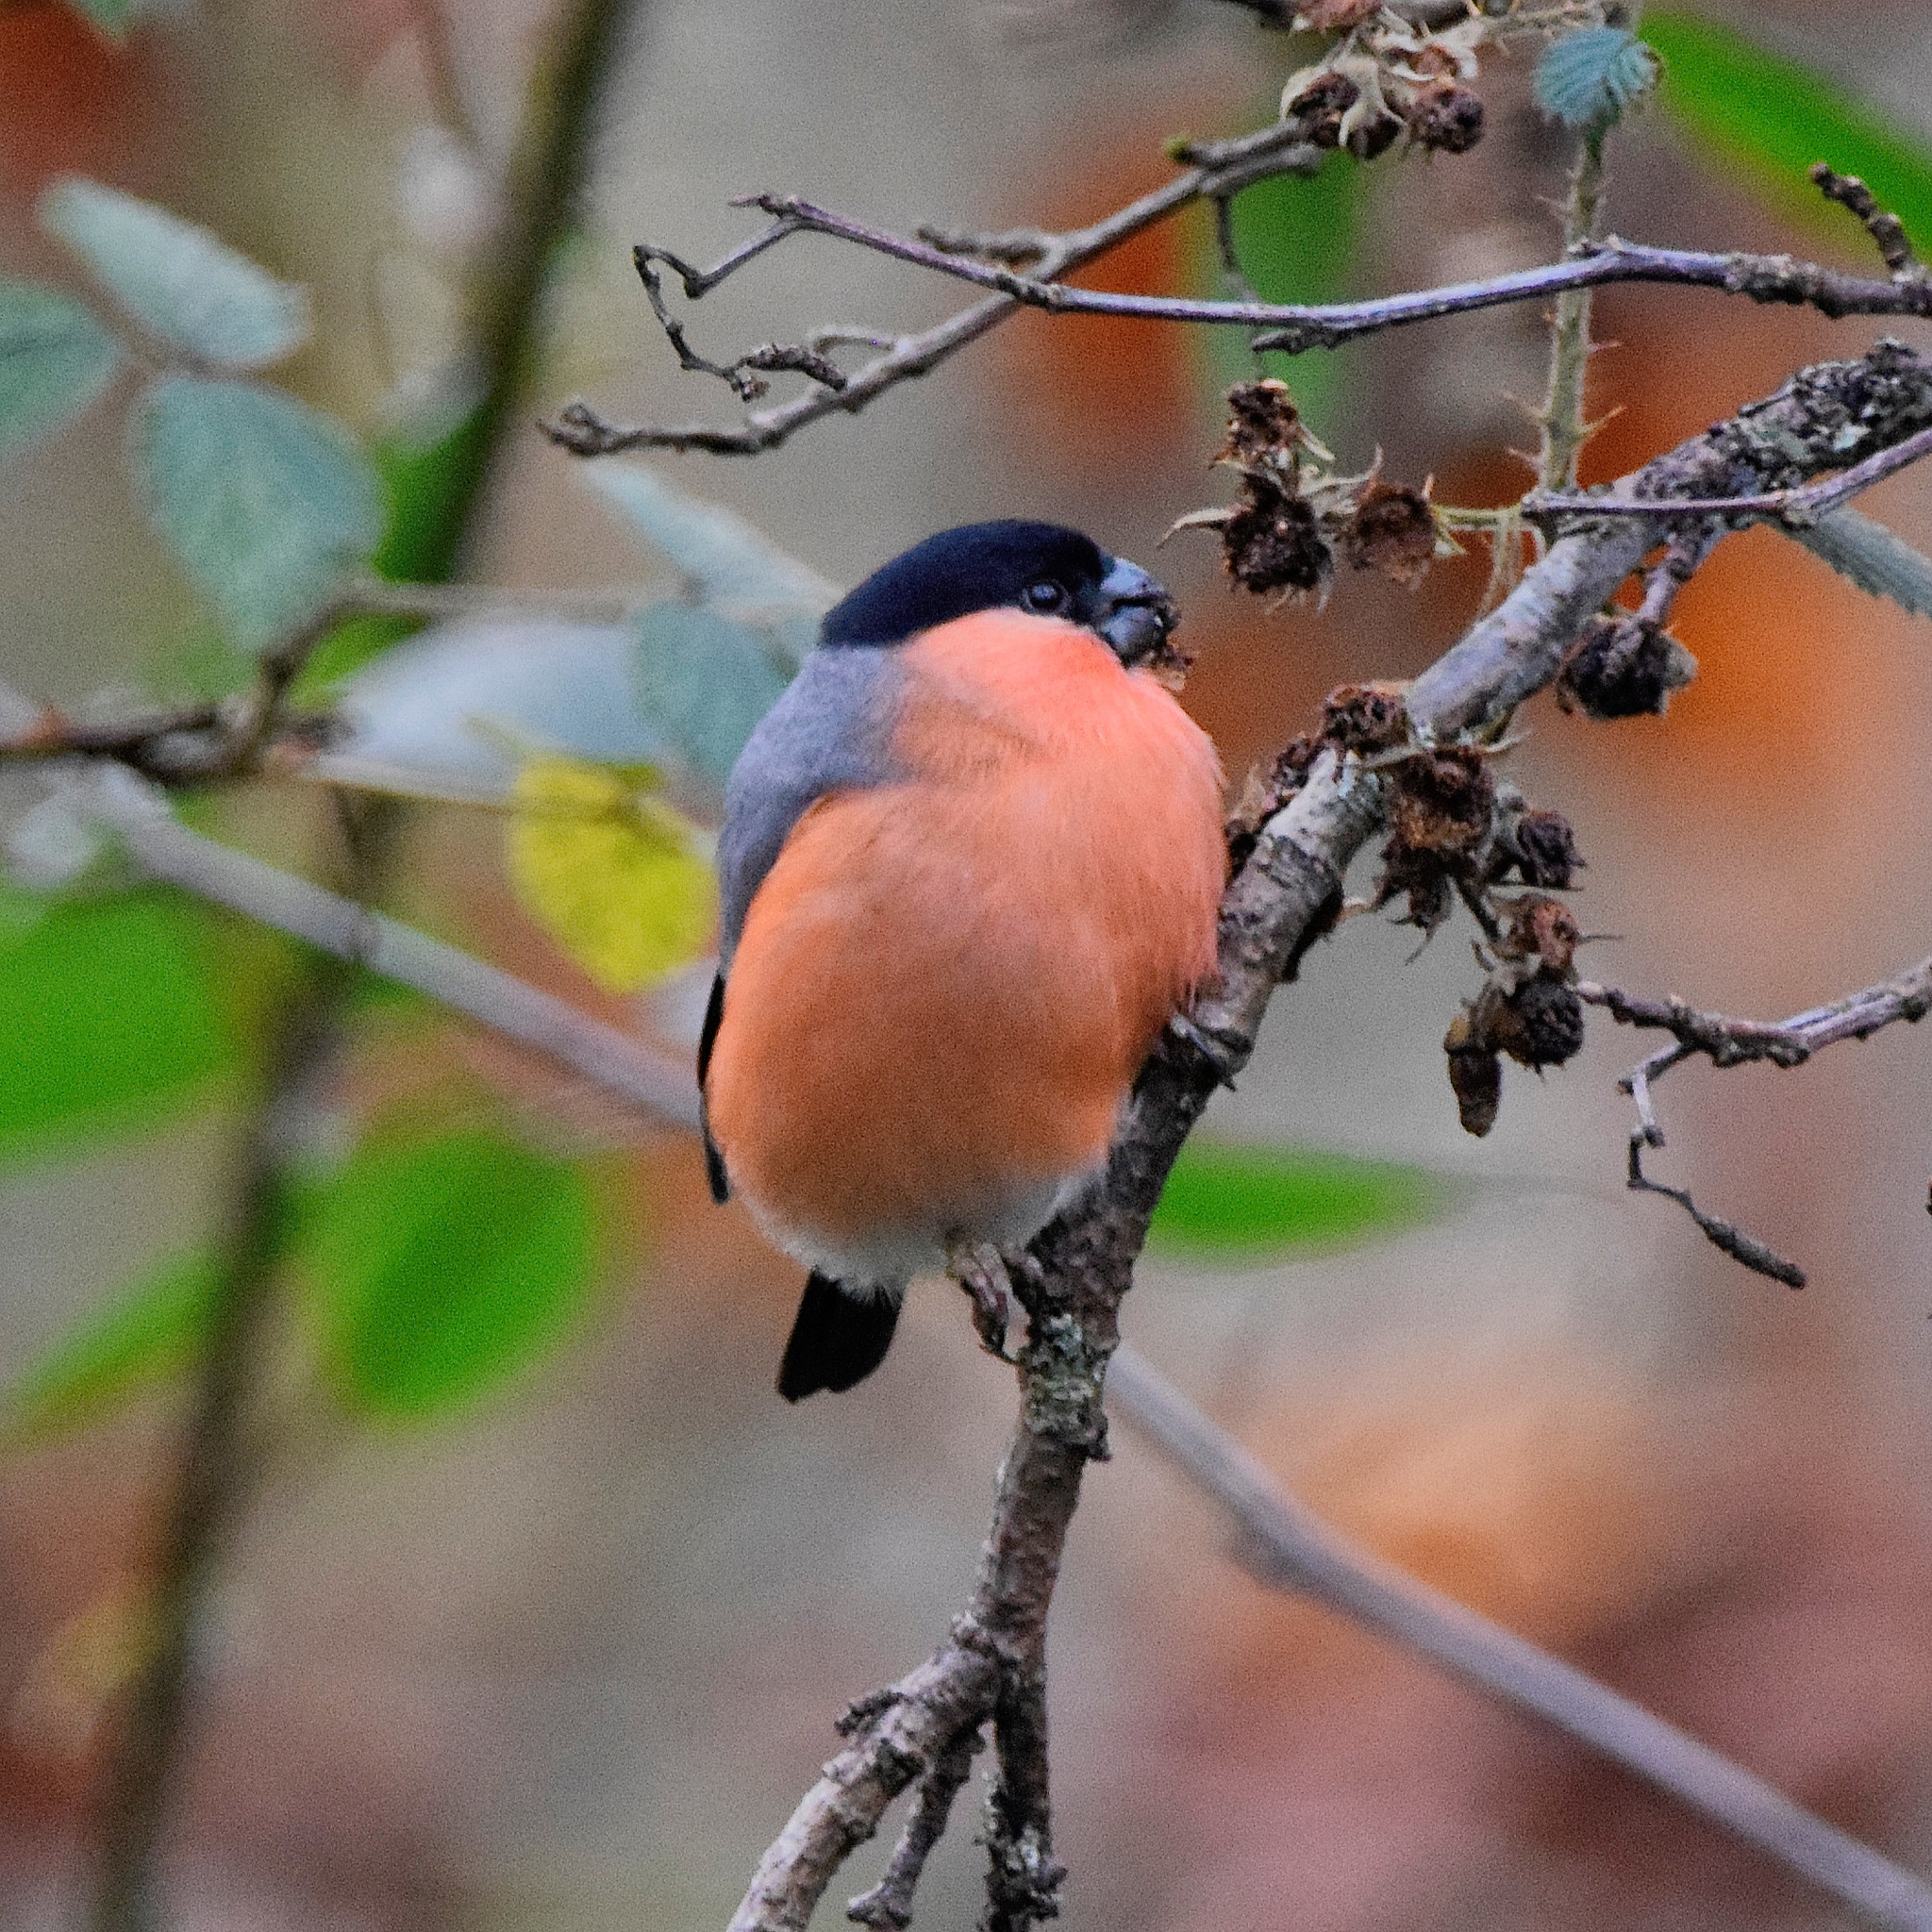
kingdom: Animalia
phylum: Chordata
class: Aves
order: Passeriformes
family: Fringillidae
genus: Pyrrhula
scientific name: Pyrrhula pyrrhula
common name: Eurasian bullfinch
